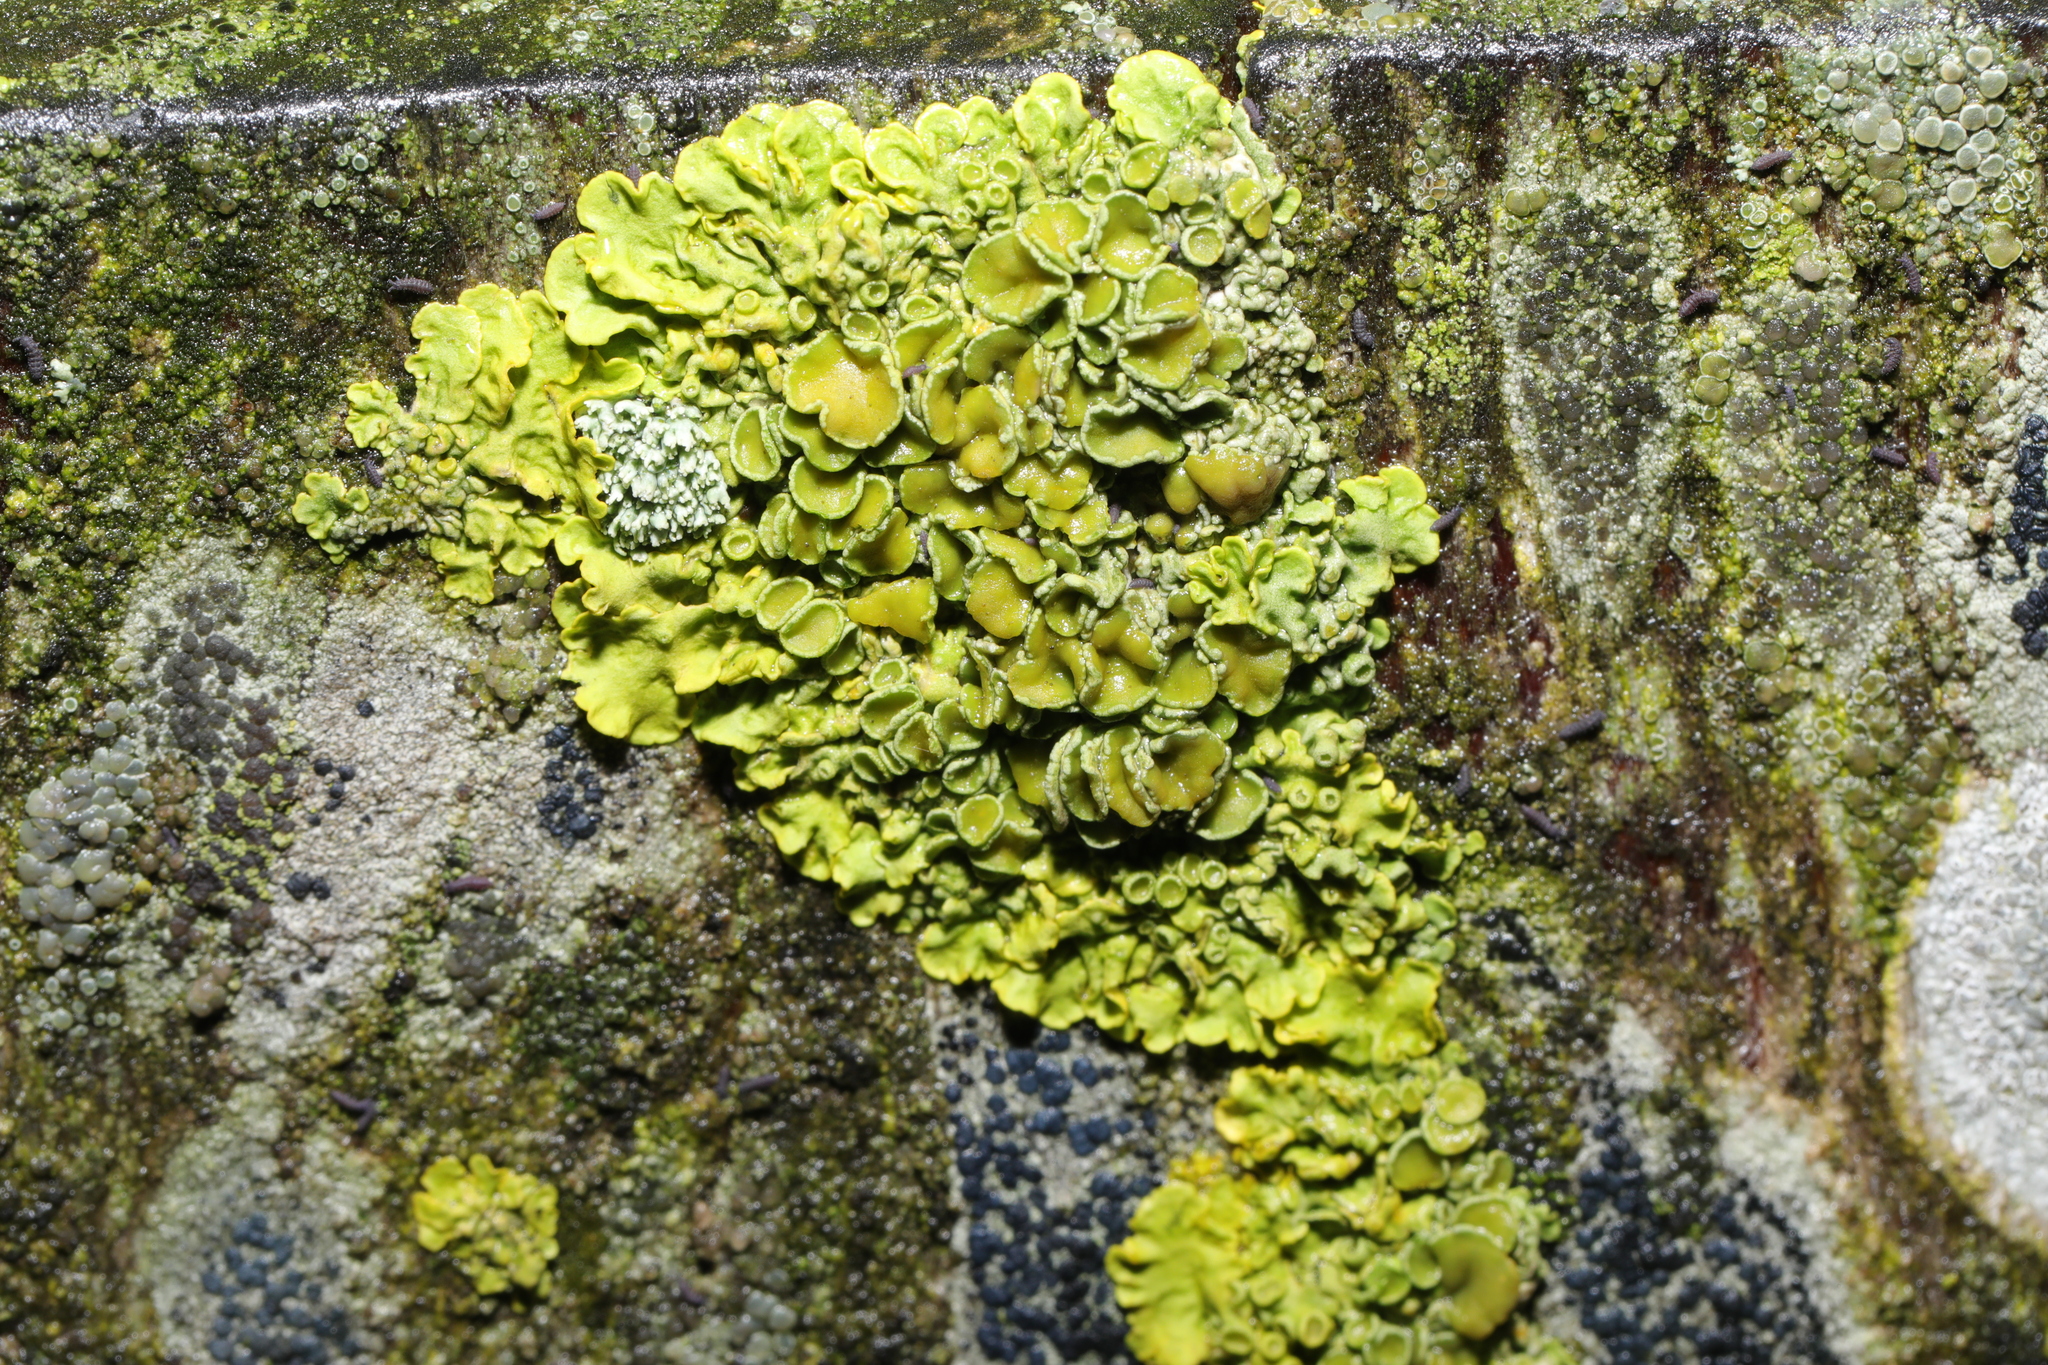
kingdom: Fungi
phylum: Ascomycota
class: Lecanoromycetes
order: Teloschistales
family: Teloschistaceae
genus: Xanthoria
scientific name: Xanthoria parietina
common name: Common orange lichen
